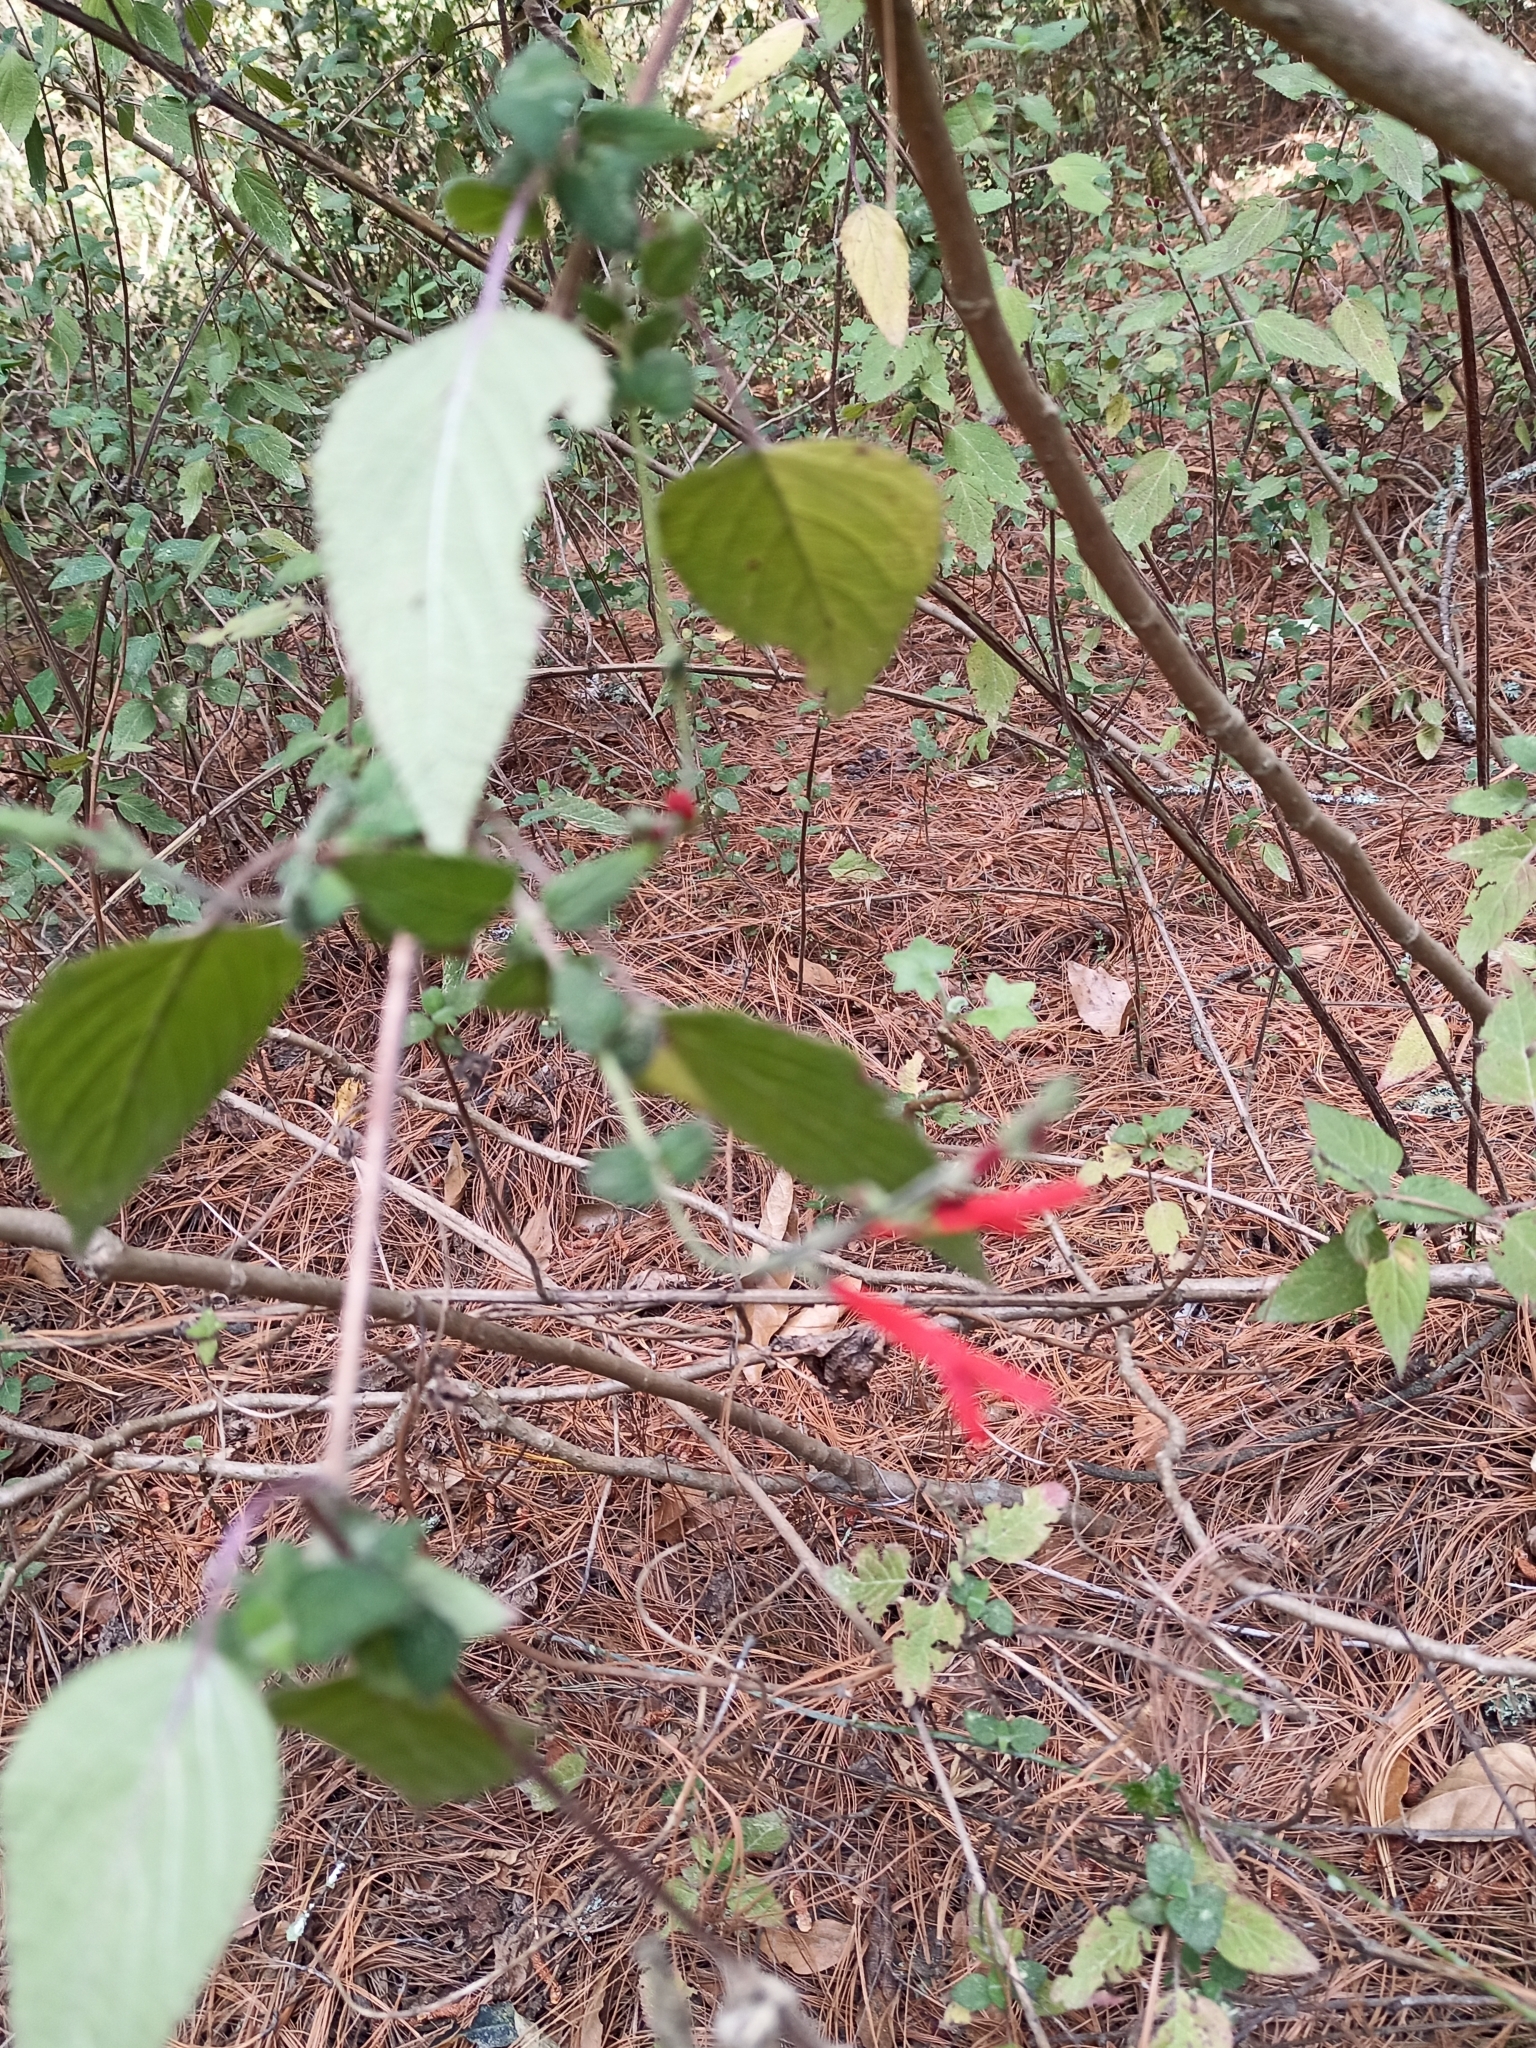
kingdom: Plantae
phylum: Tracheophyta
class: Magnoliopsida
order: Lamiales
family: Lamiaceae
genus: Salvia
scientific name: Salvia elegans
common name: Pineapple sage
